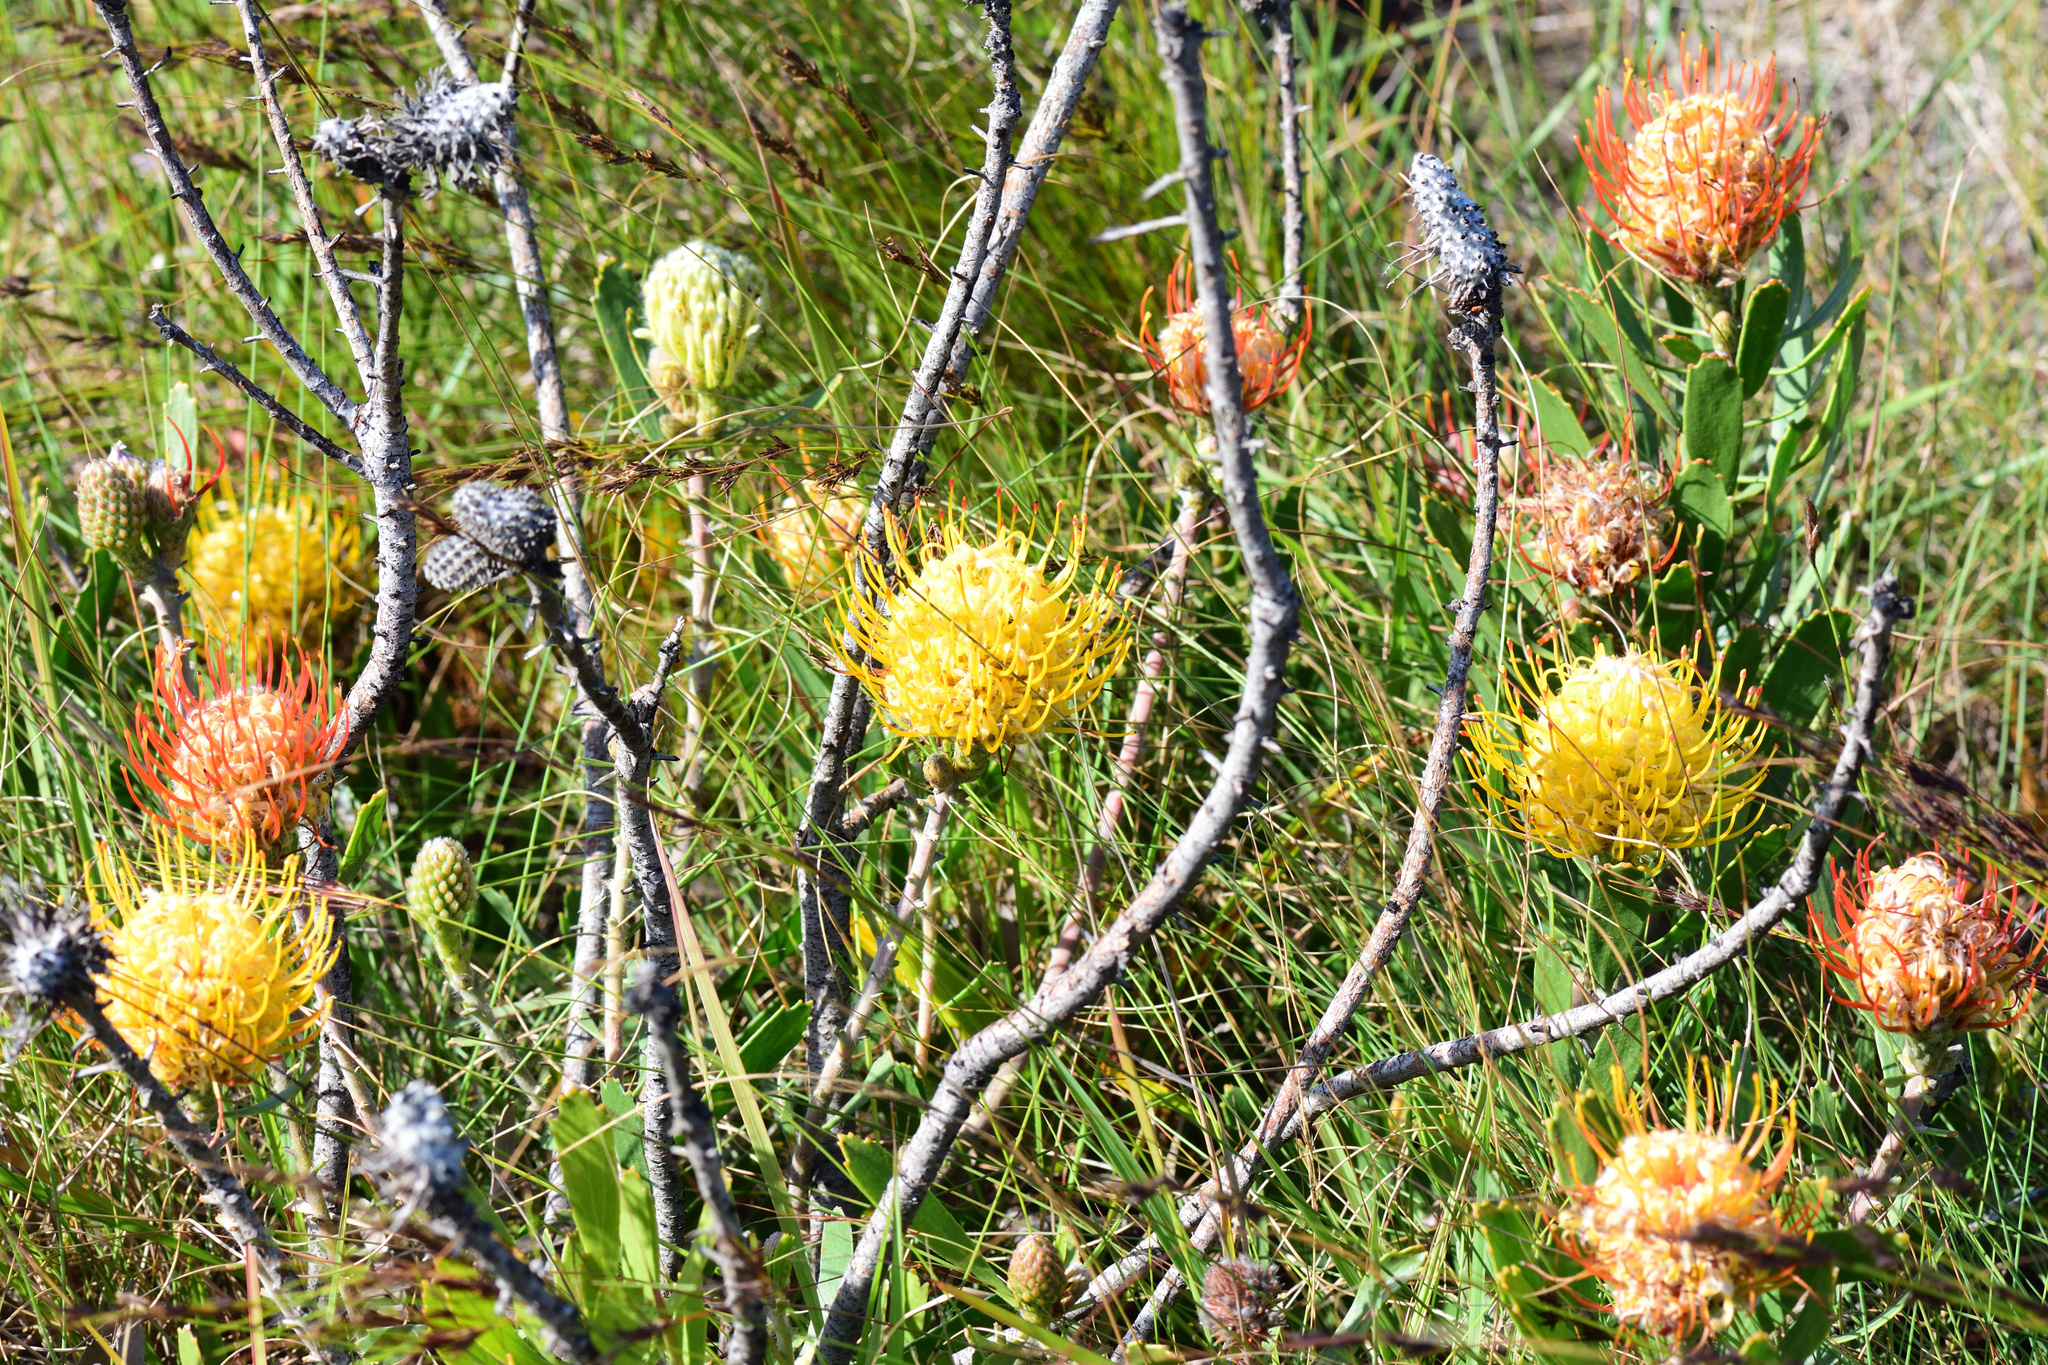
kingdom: Plantae
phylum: Tracheophyta
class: Magnoliopsida
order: Proteales
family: Proteaceae
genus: Leucospermum
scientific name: Leucospermum cuneiforme
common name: Common pincushion
